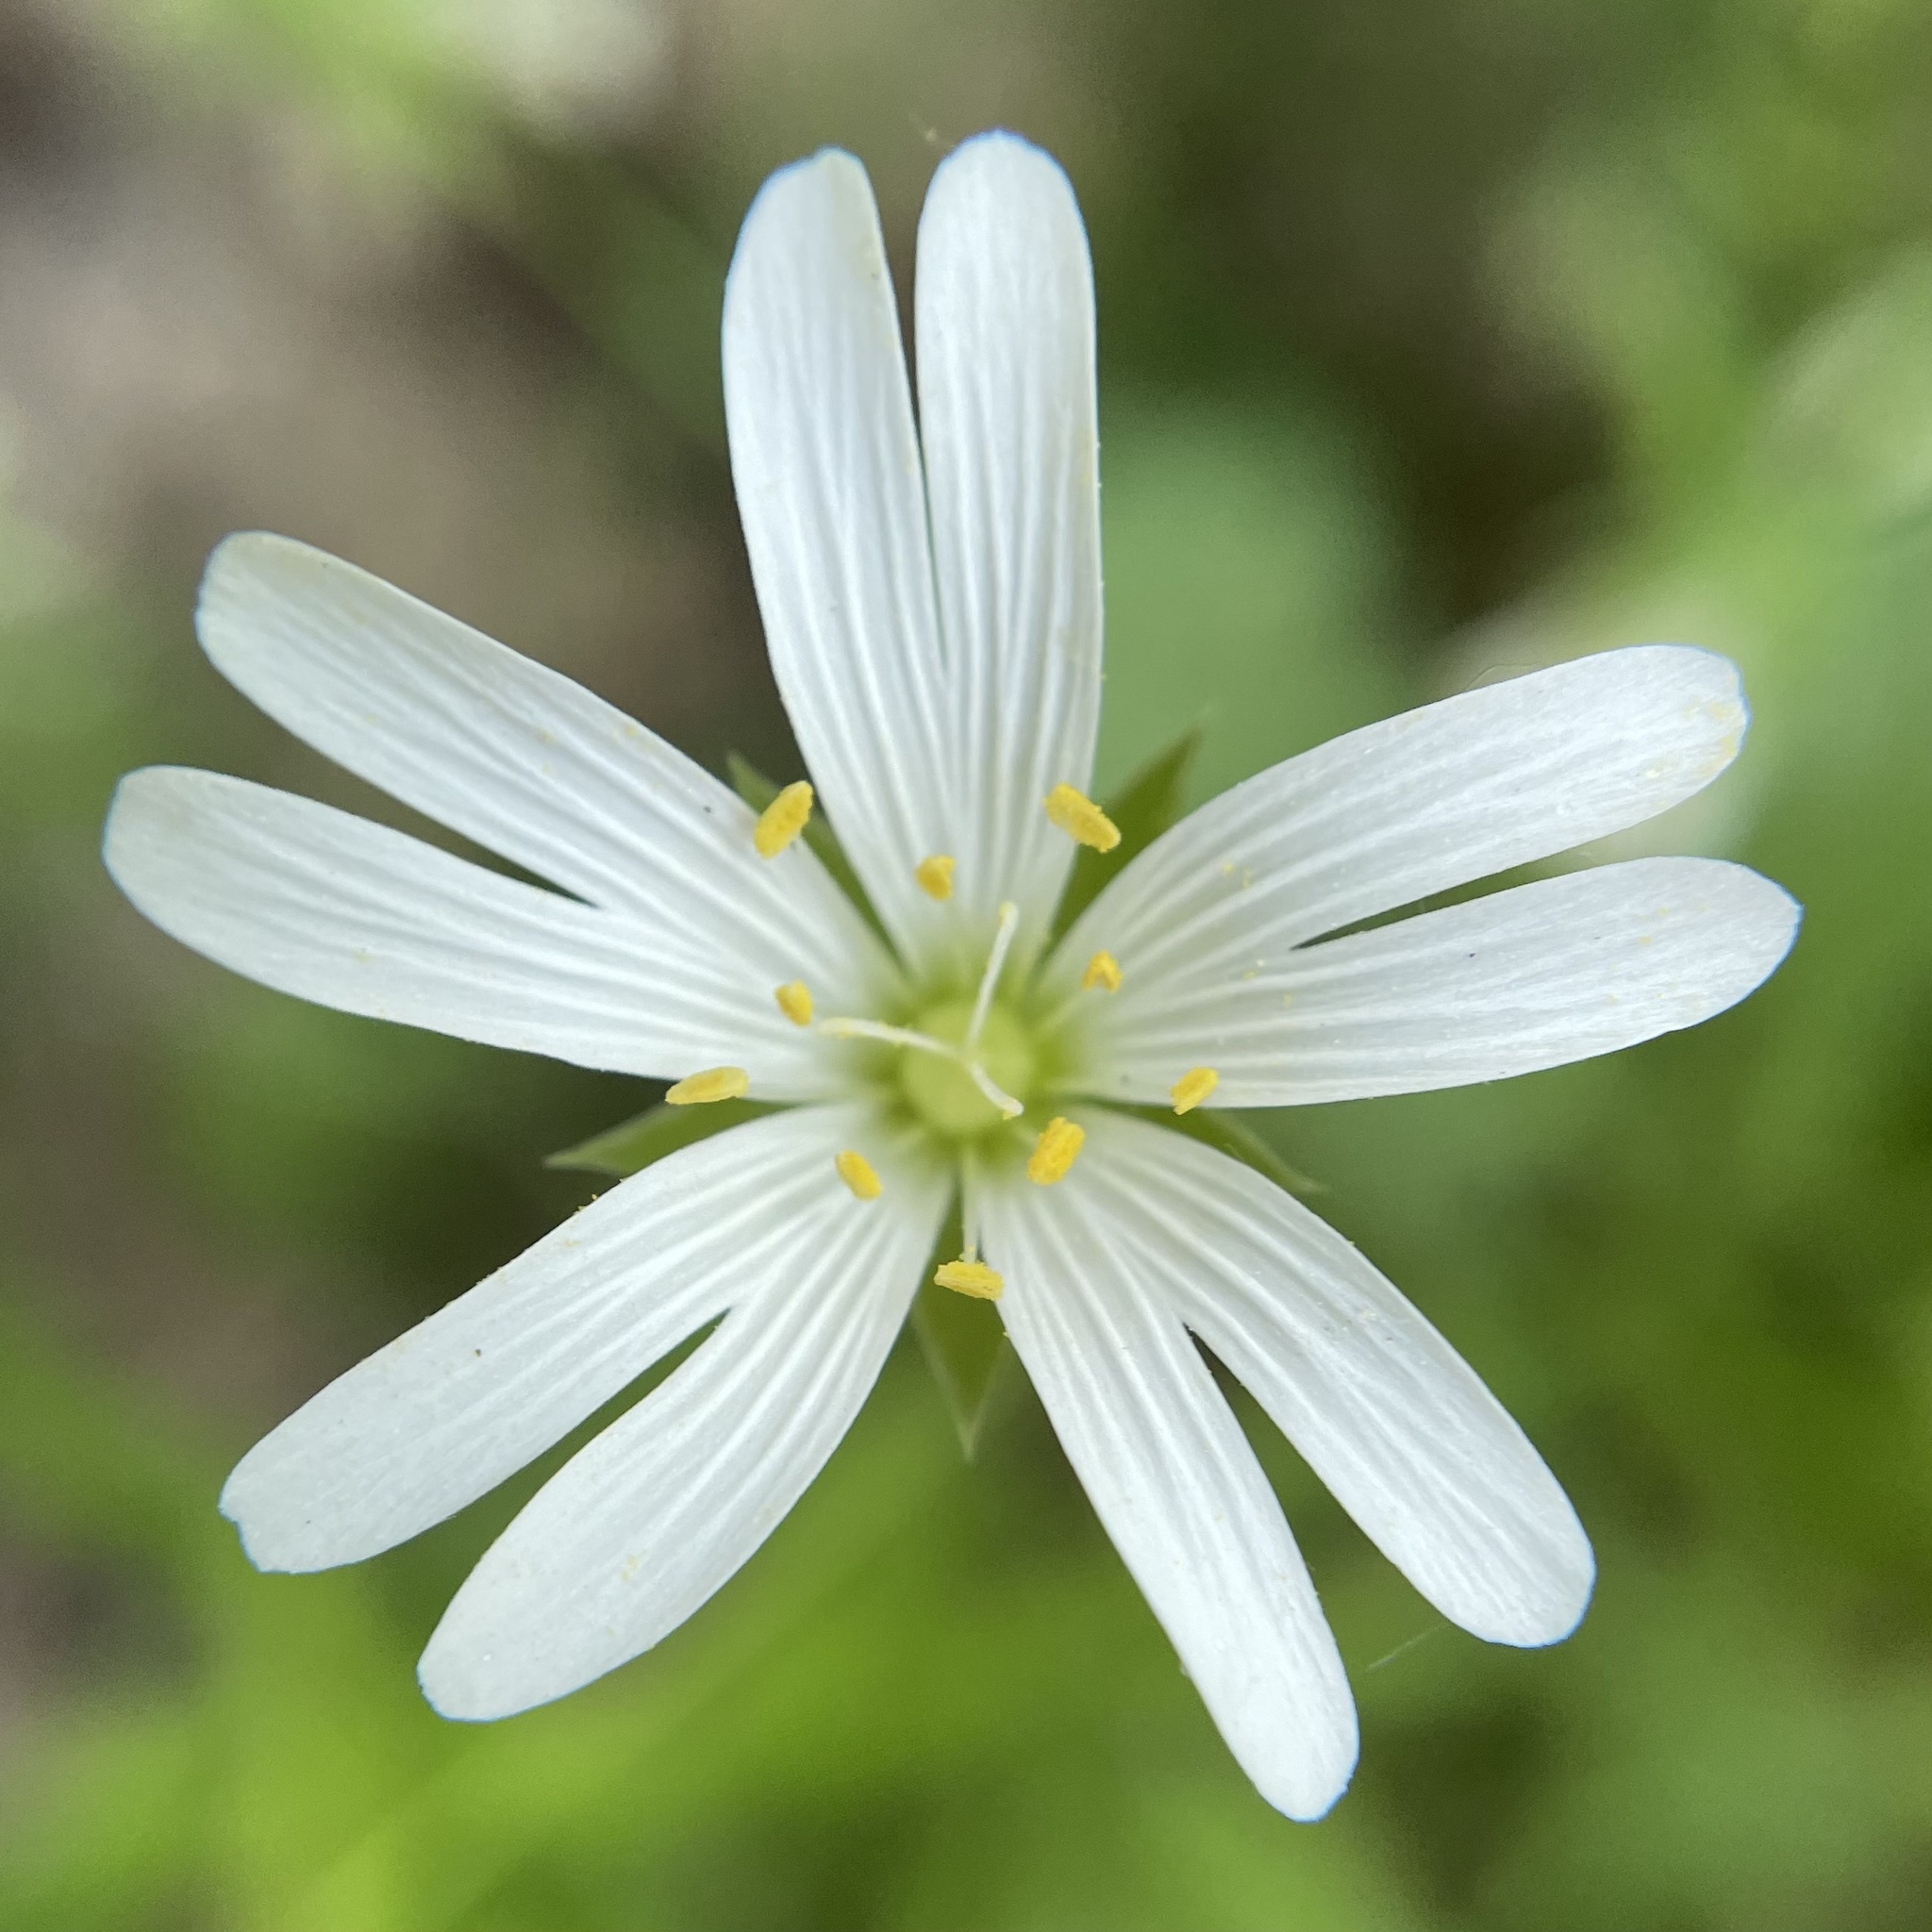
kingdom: Plantae
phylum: Tracheophyta
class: Magnoliopsida
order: Caryophyllales
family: Caryophyllaceae
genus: Rabelera
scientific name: Rabelera holostea
